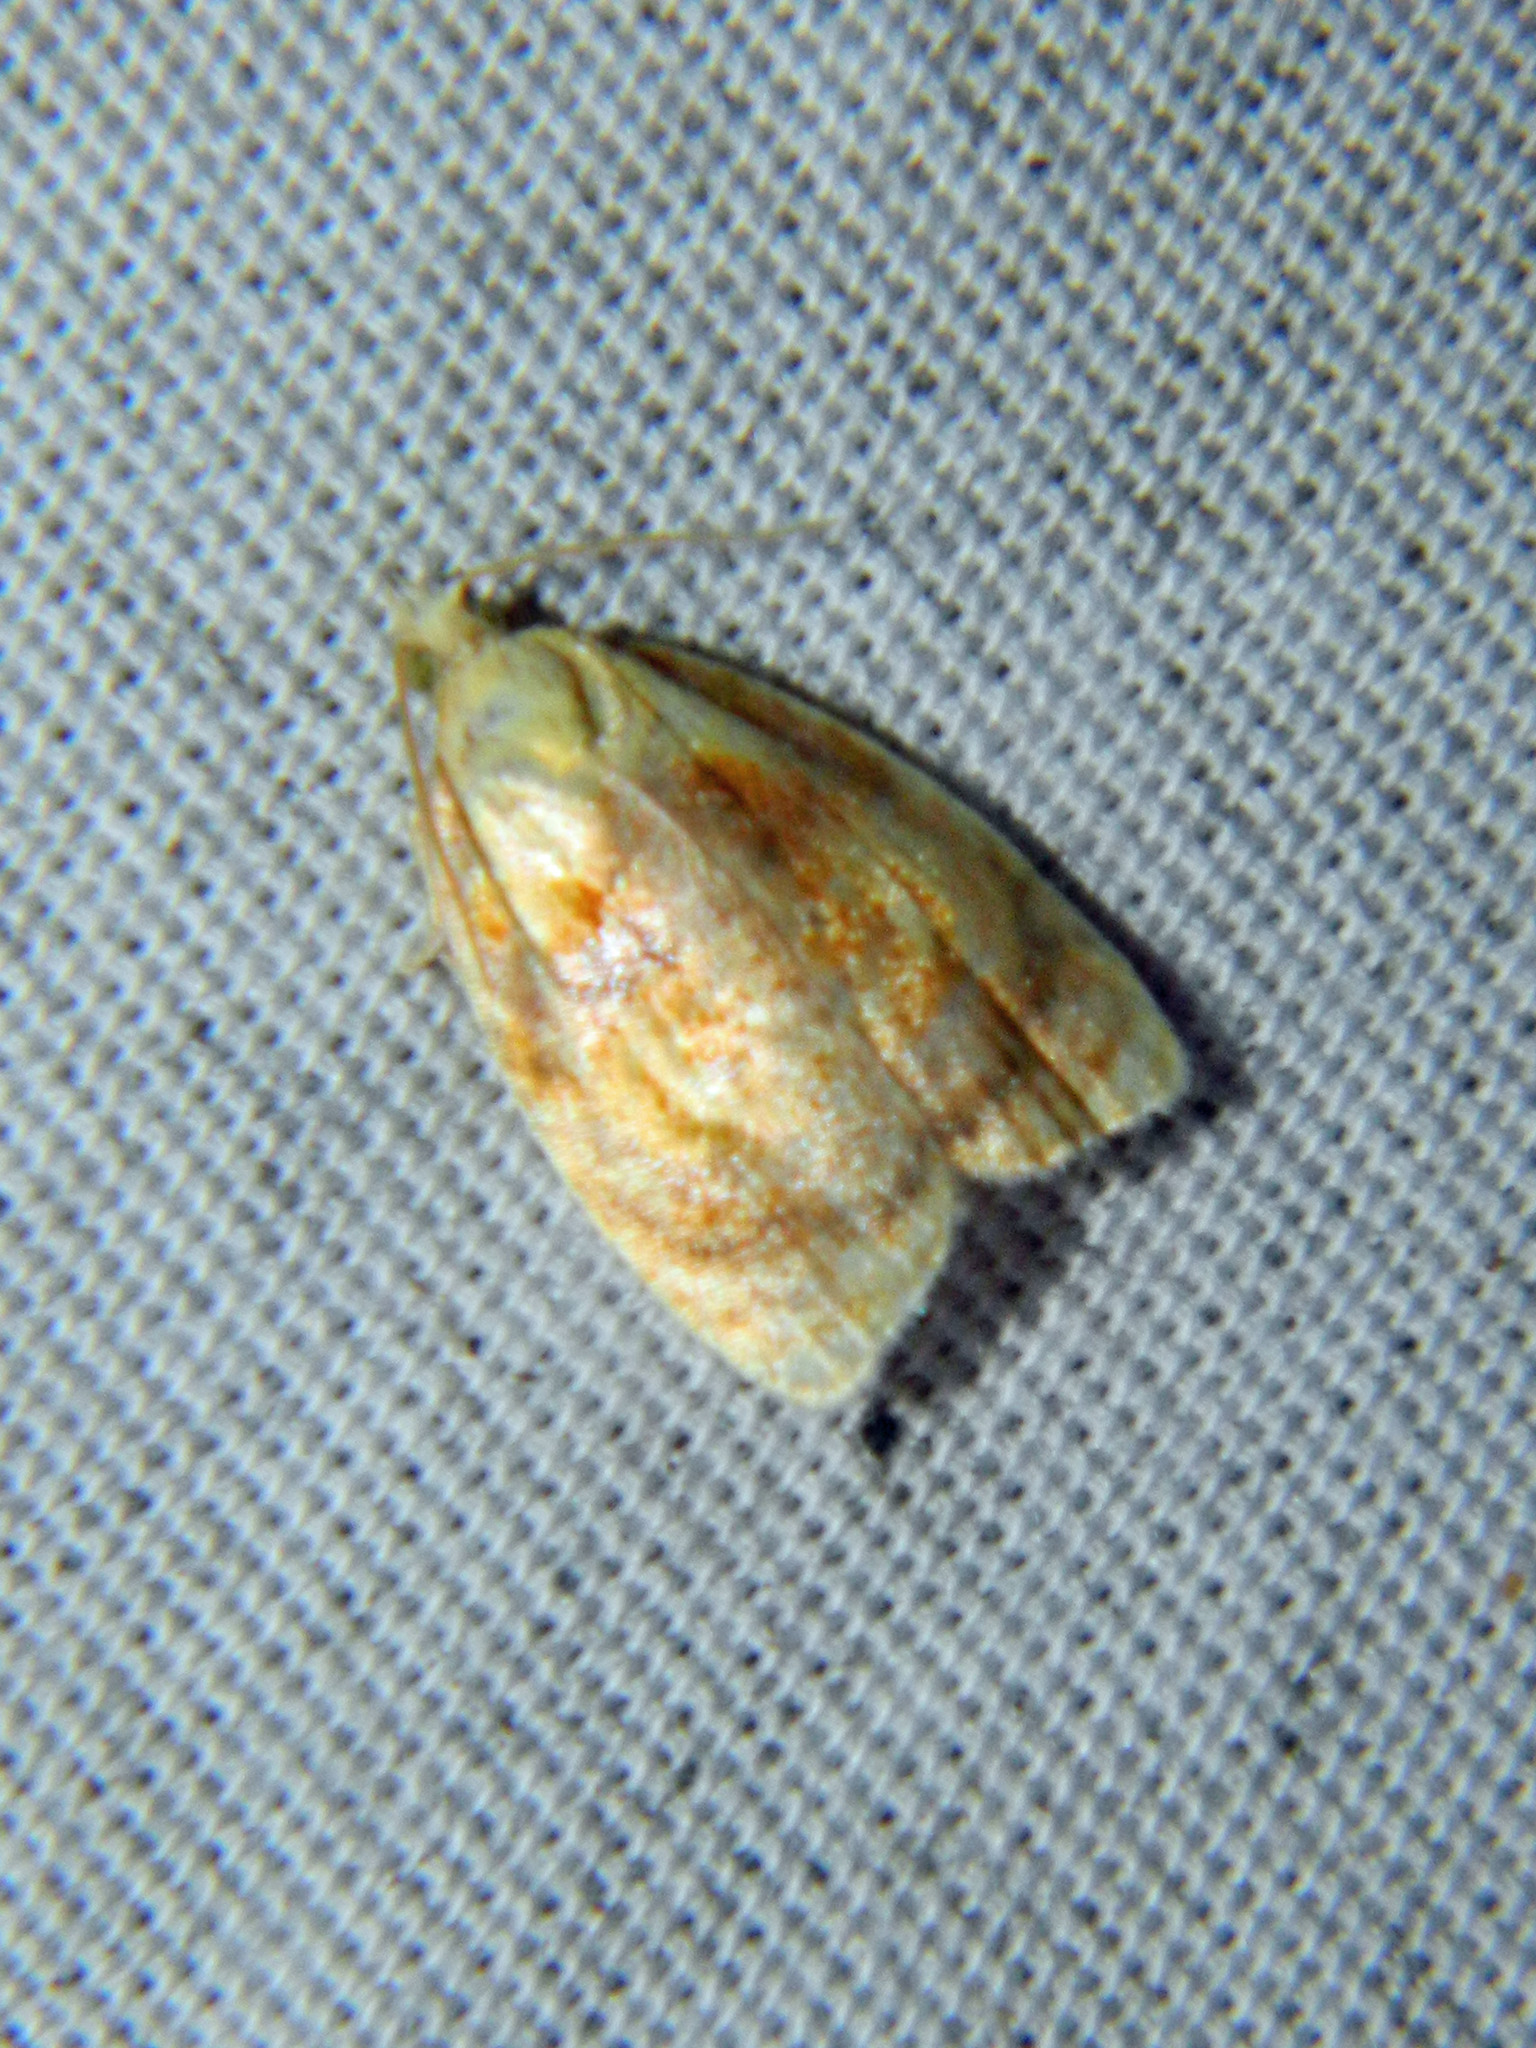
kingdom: Animalia
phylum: Arthropoda
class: Insecta
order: Lepidoptera
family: Tortricidae
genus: Acleris
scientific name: Acleris curvalana
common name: Blueberry leaftier moth
